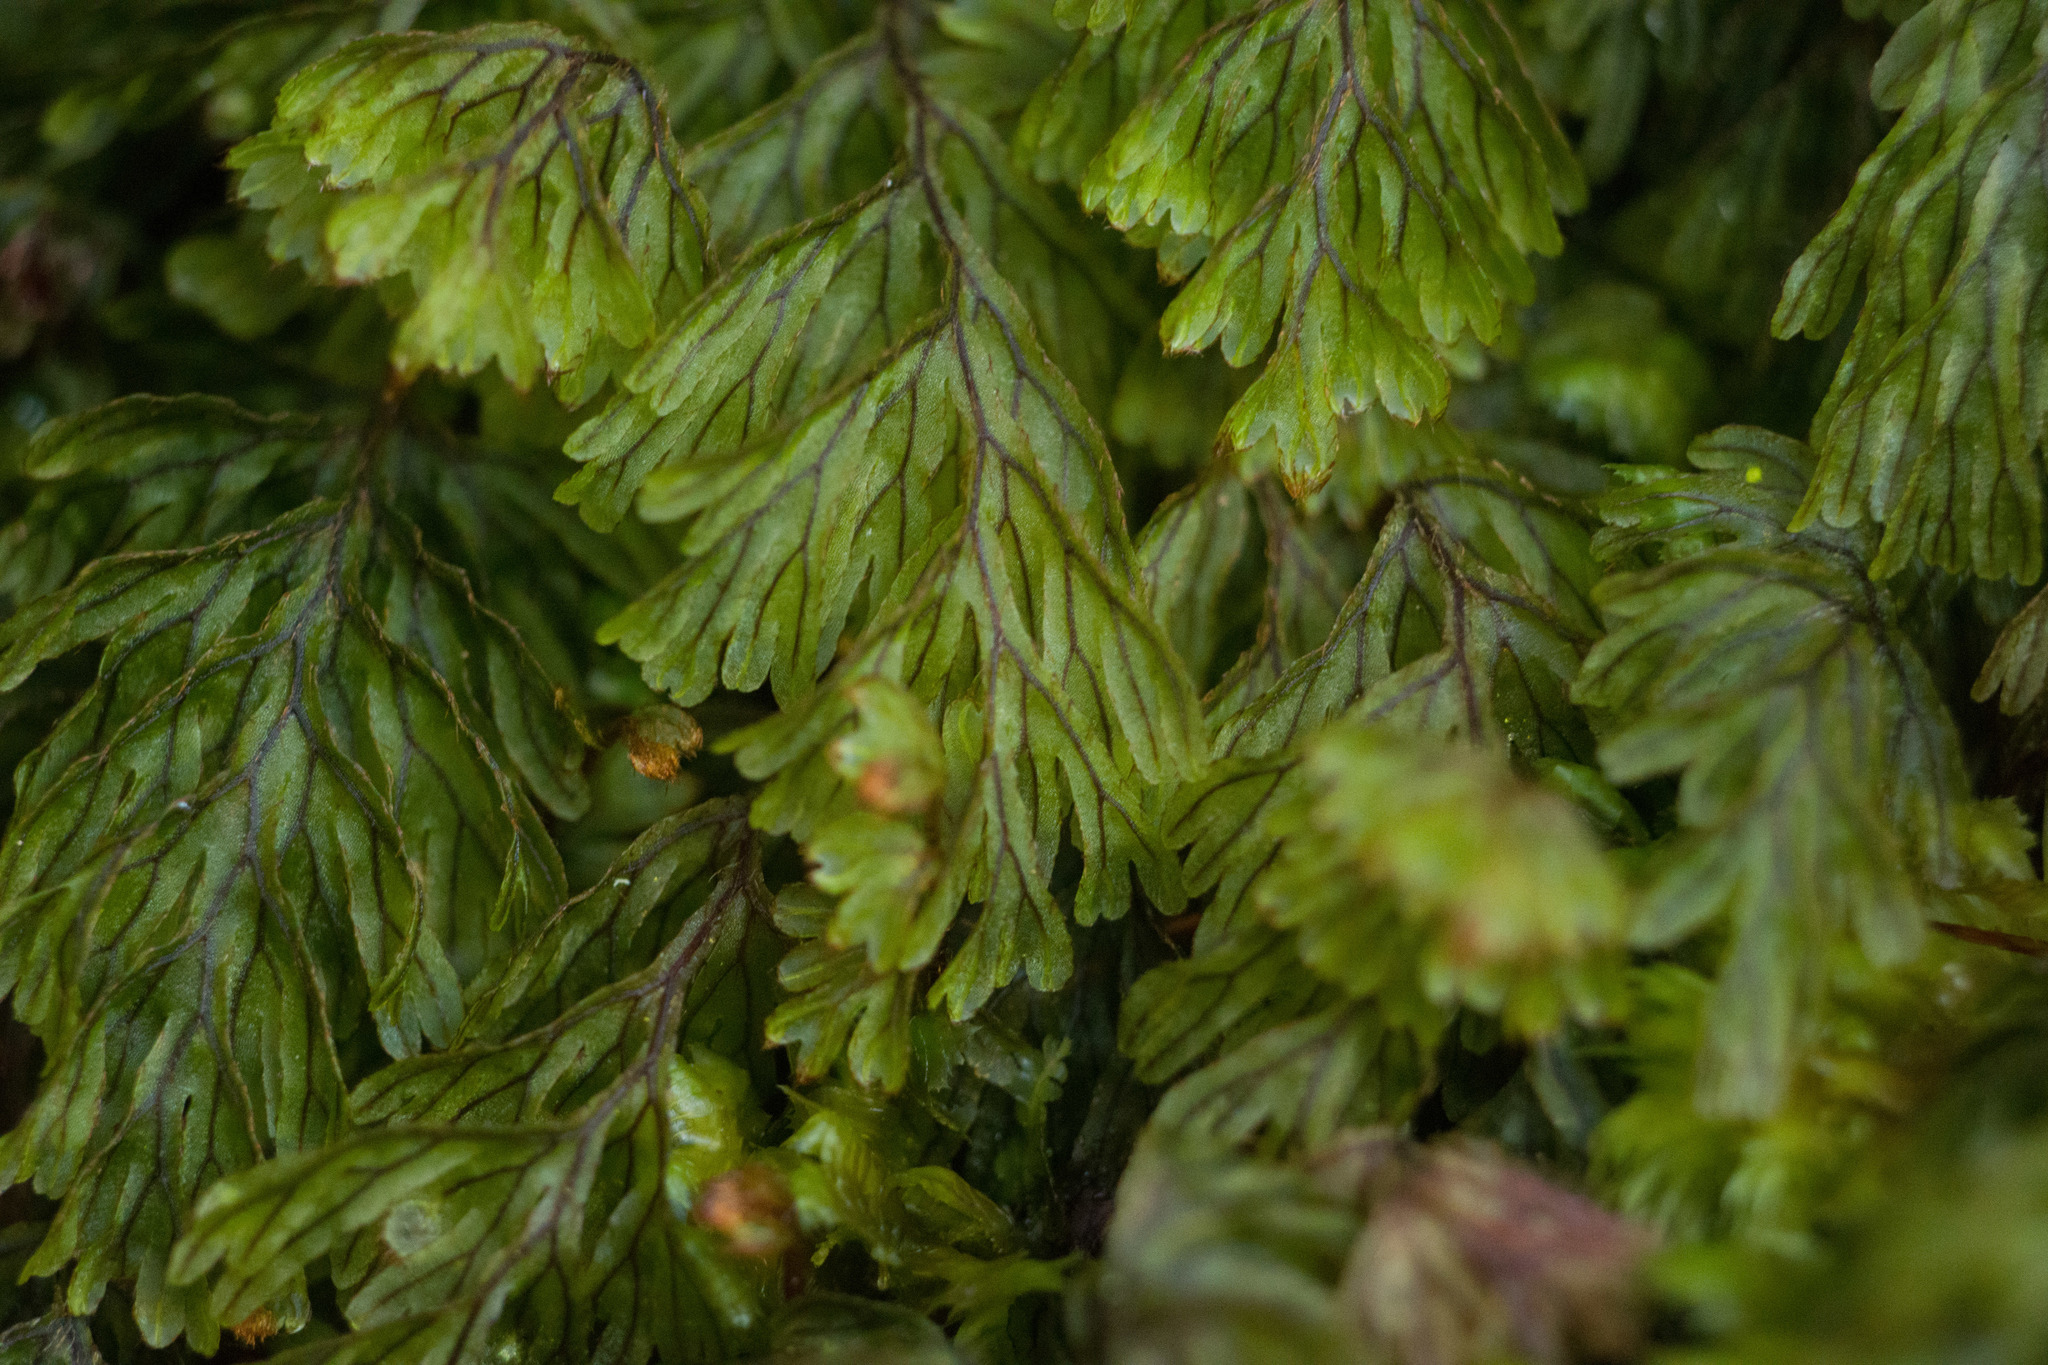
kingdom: Plantae
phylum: Tracheophyta
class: Polypodiopsida
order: Hymenophyllales
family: Hymenophyllaceae
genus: Hymenophyllum
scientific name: Hymenophyllum lanceolatum
